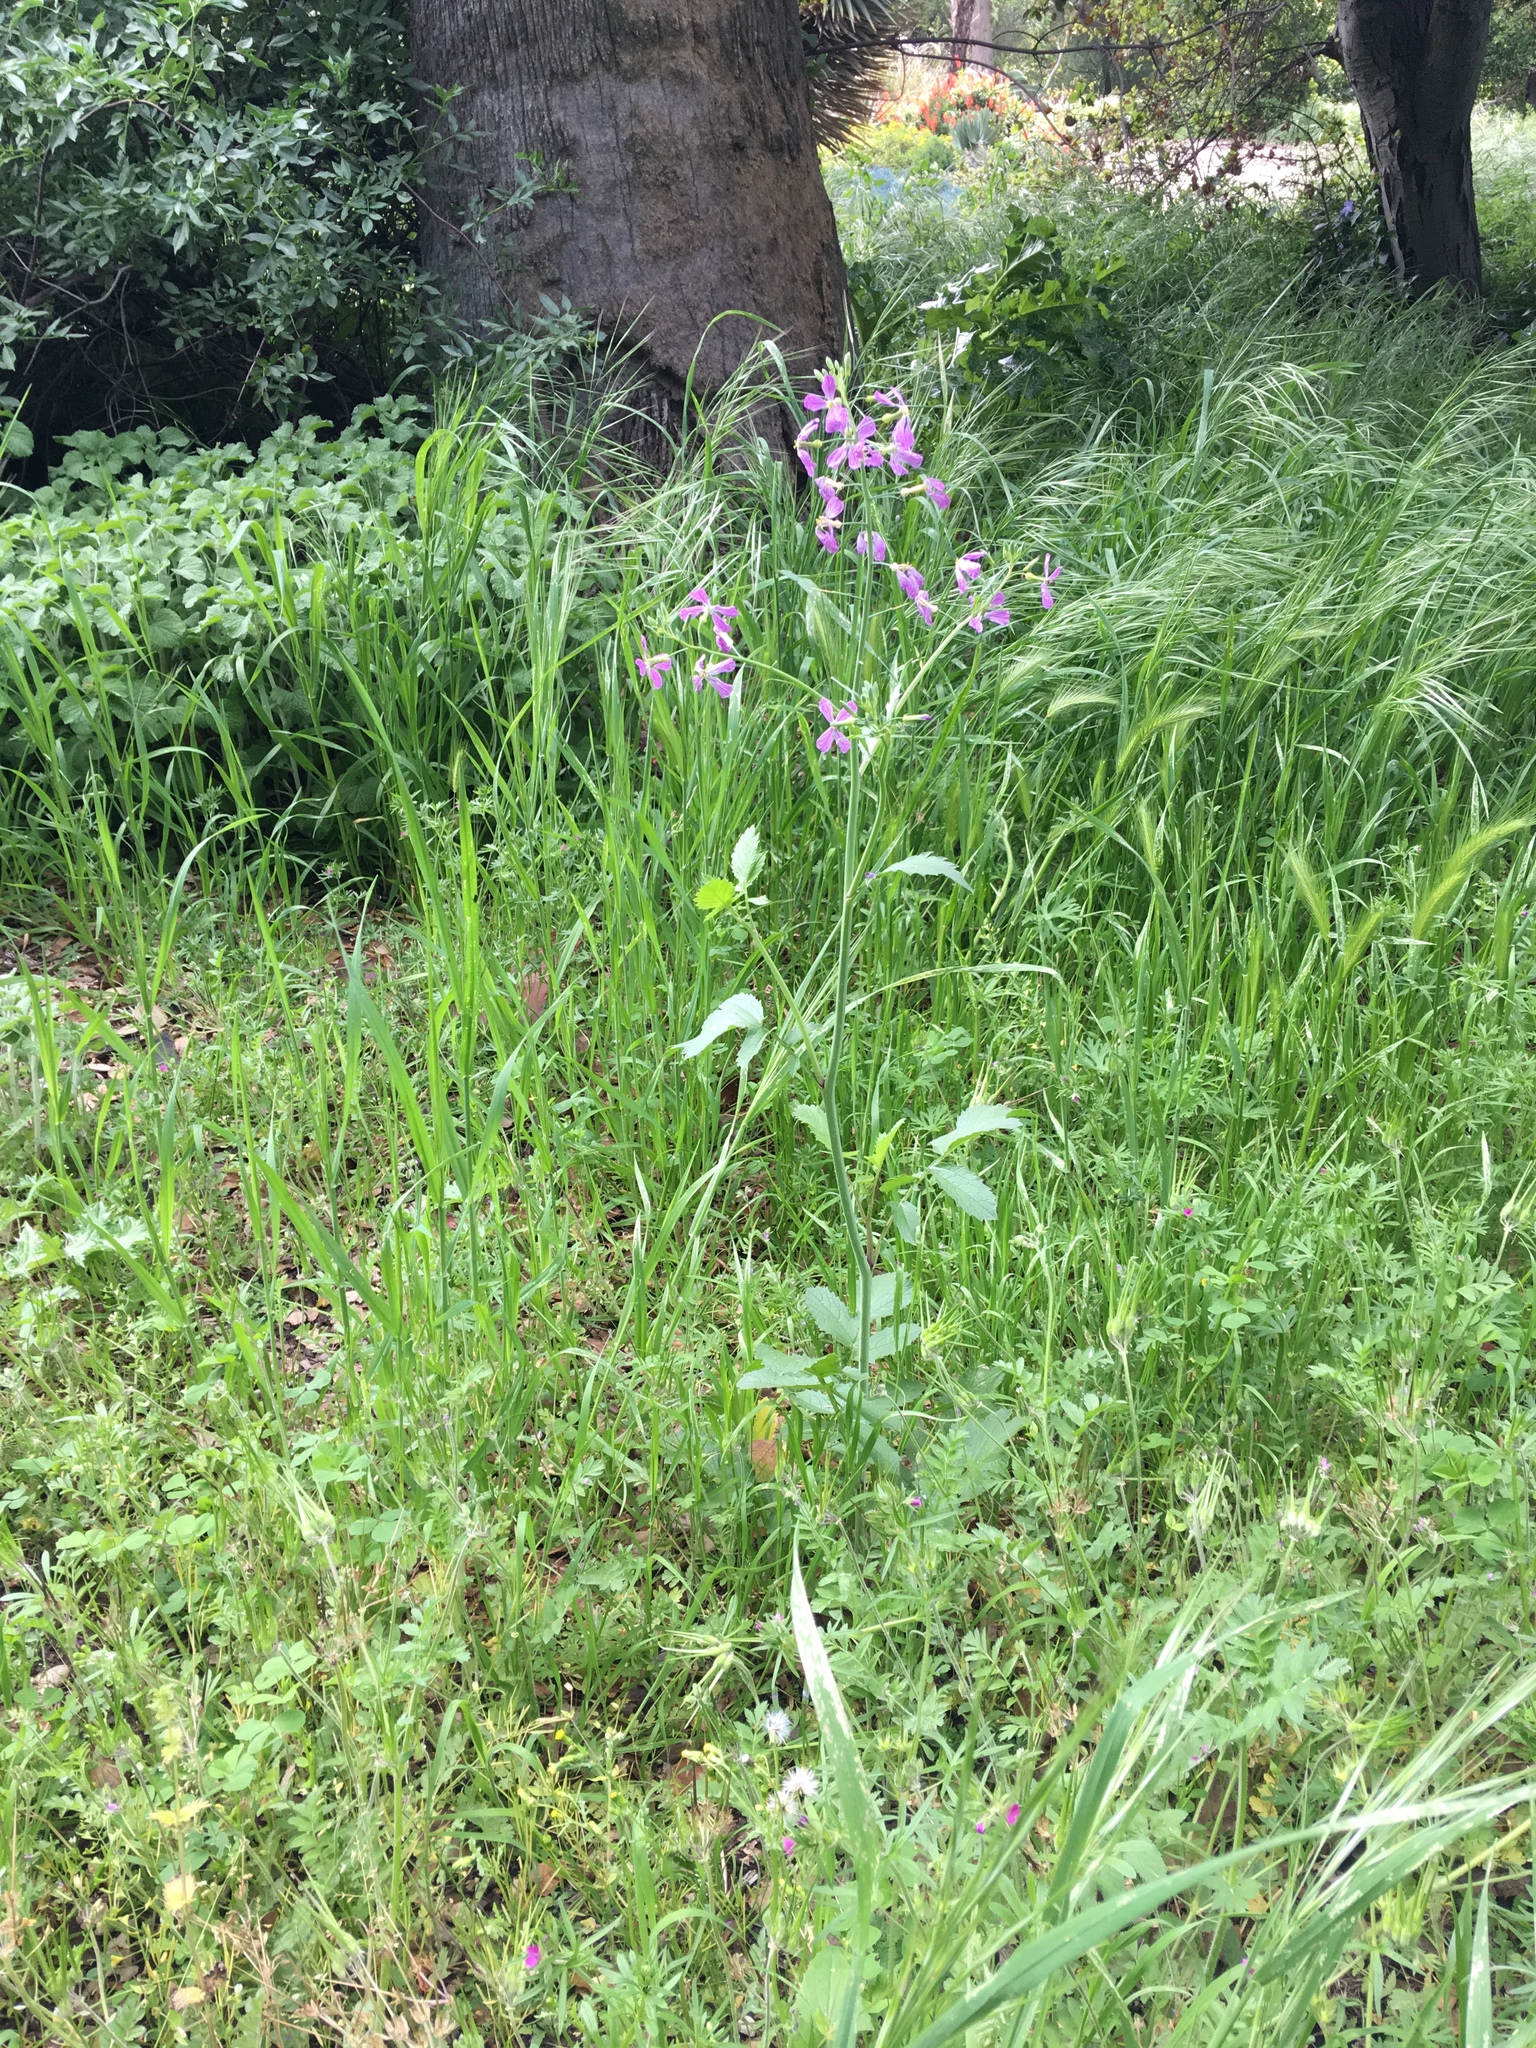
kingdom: Plantae
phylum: Tracheophyta
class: Magnoliopsida
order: Brassicales
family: Brassicaceae
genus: Raphanus
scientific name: Raphanus sativus
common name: Cultivated radish
